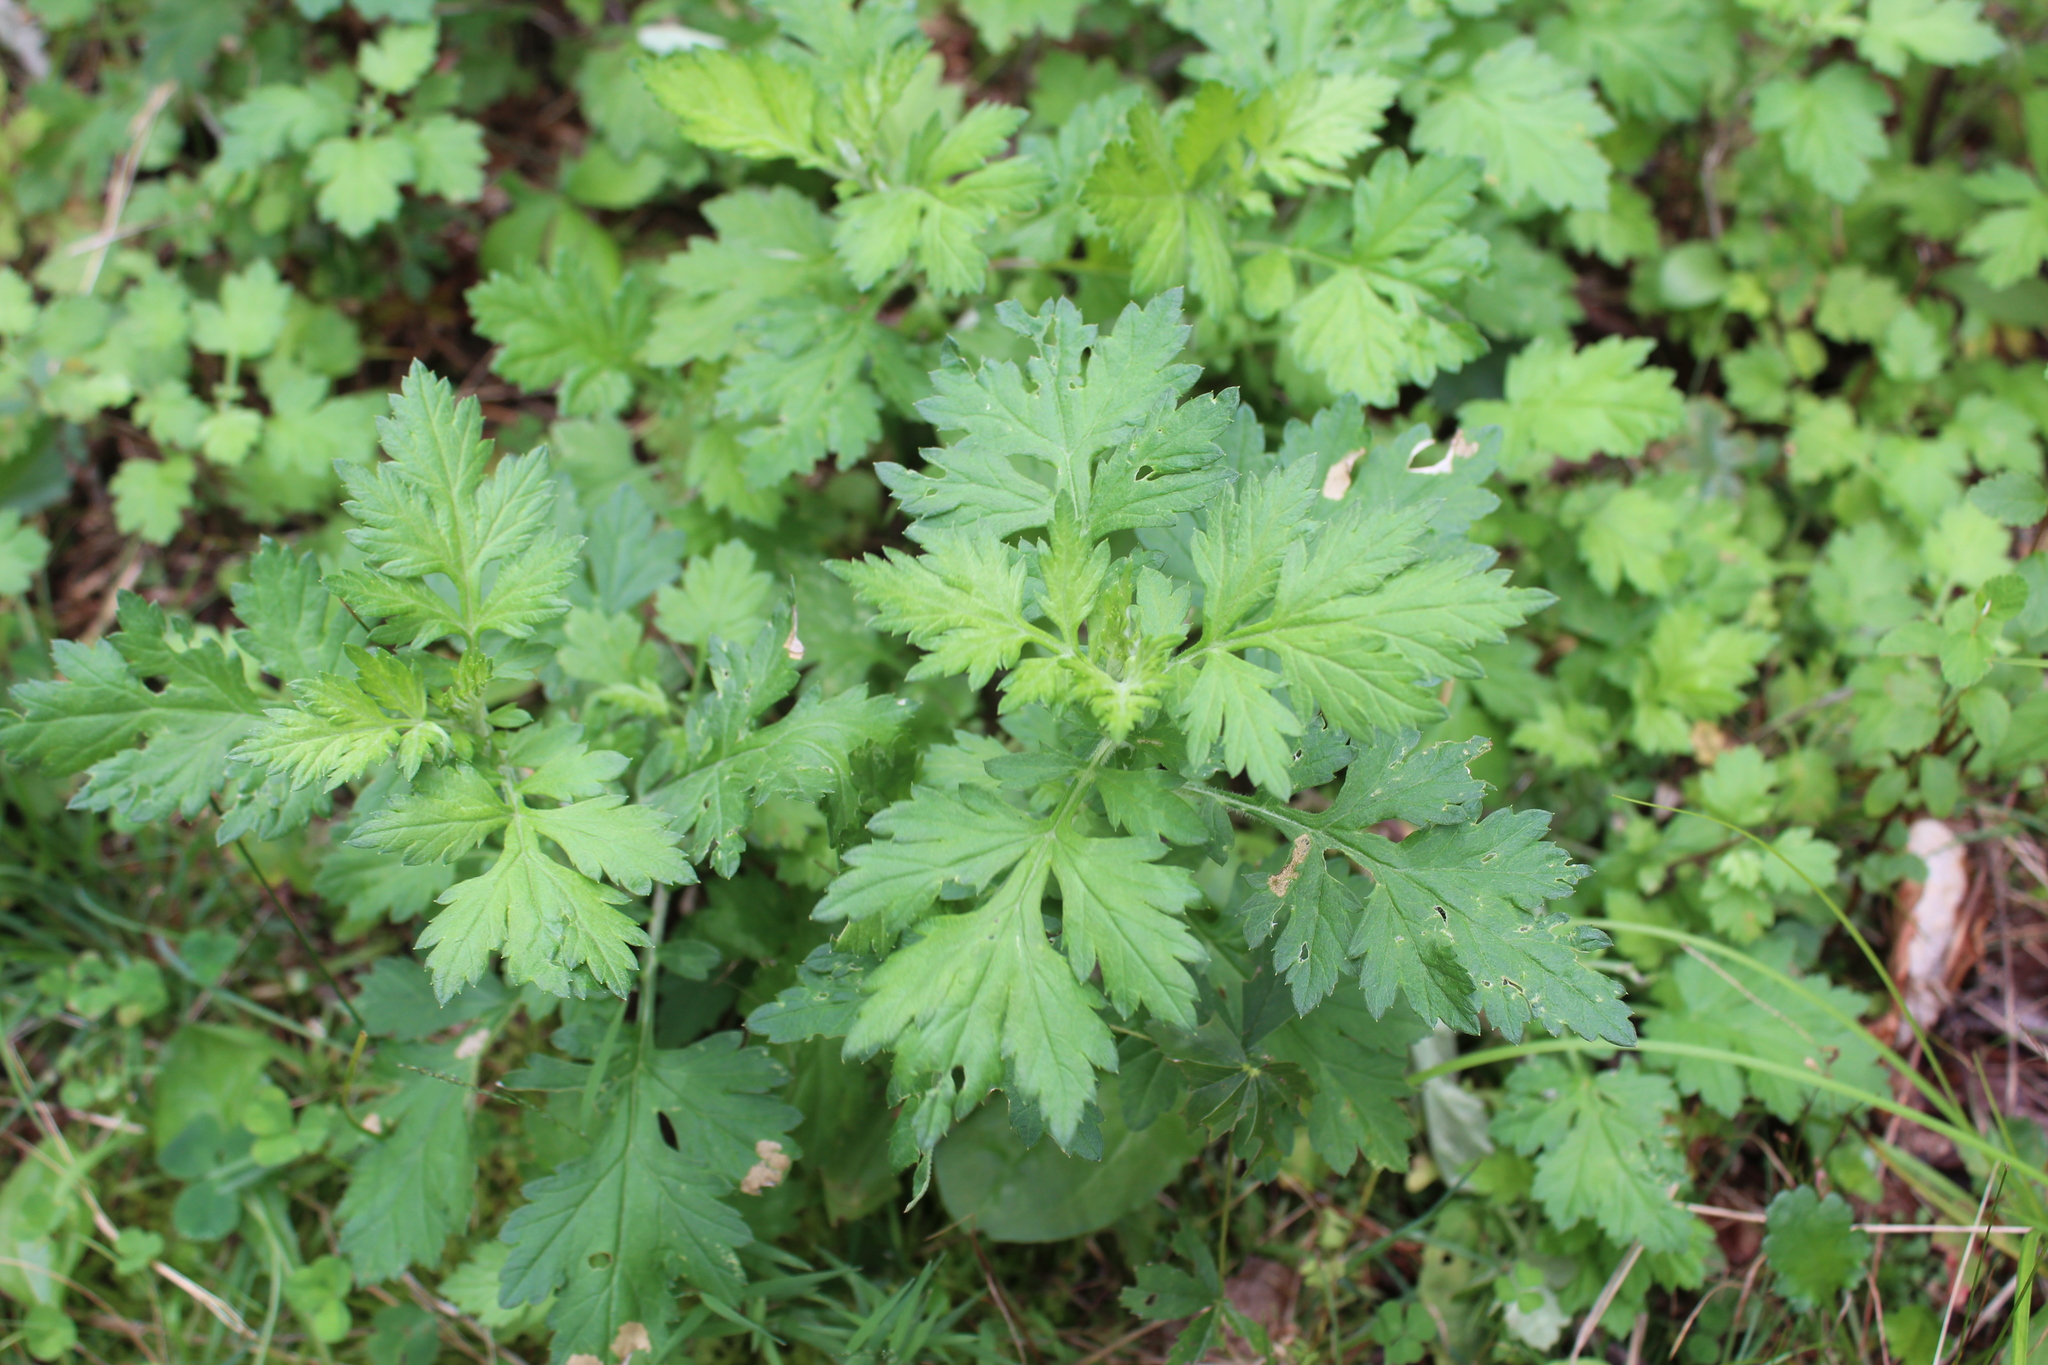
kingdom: Plantae
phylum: Tracheophyta
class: Magnoliopsida
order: Asterales
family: Asteraceae
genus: Artemisia
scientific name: Artemisia vulgaris
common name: Mugwort
